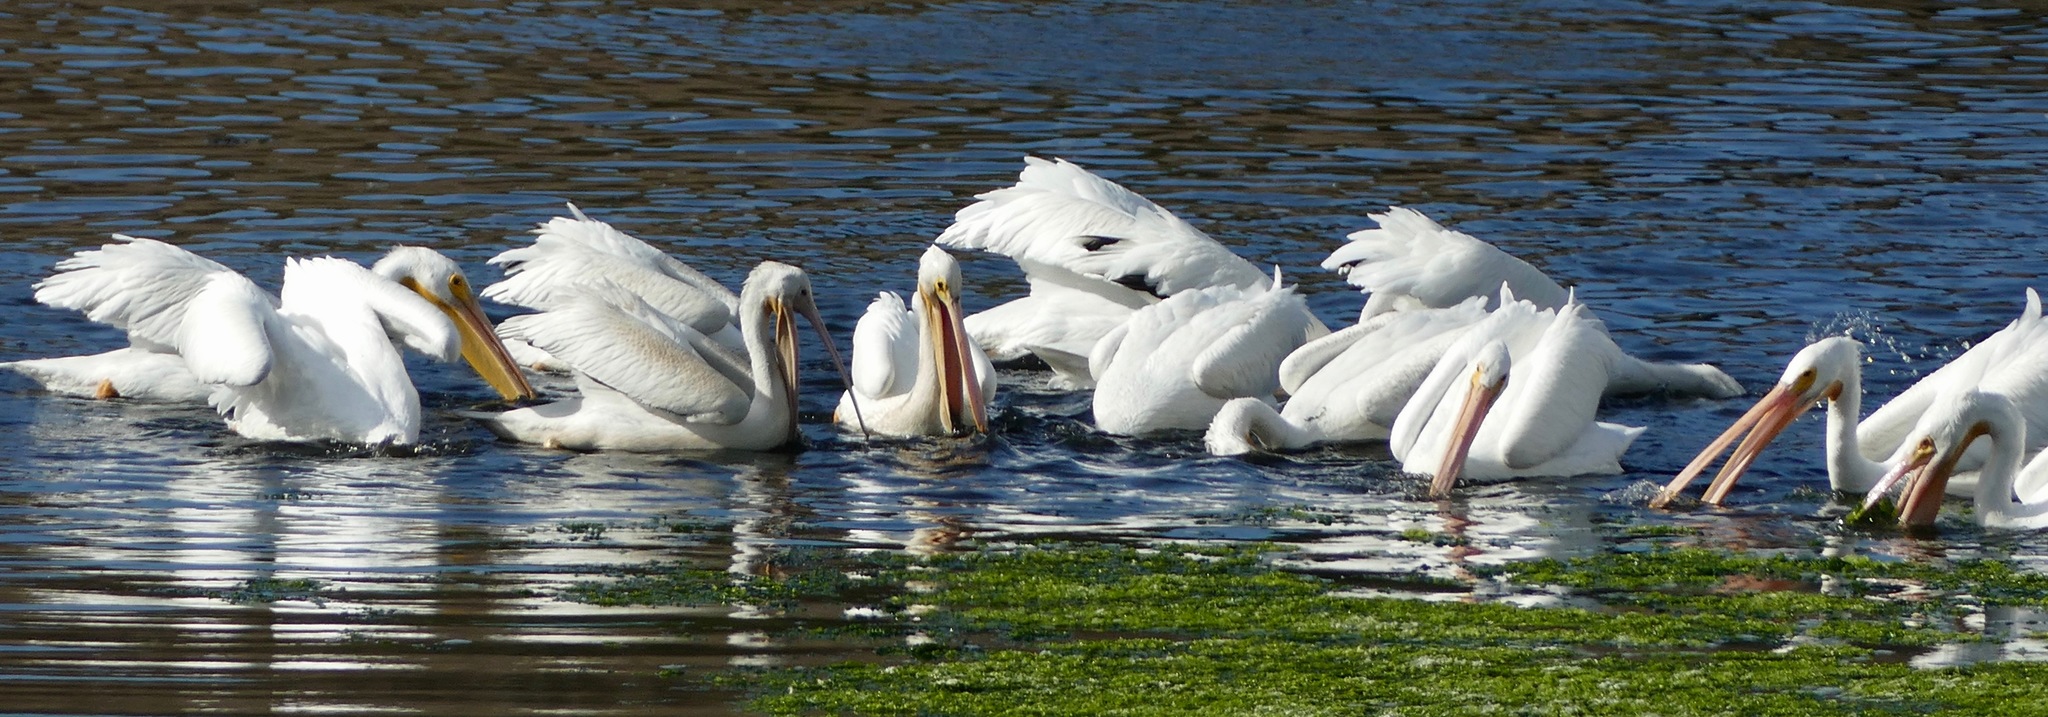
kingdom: Animalia
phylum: Chordata
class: Aves
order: Pelecaniformes
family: Pelecanidae
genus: Pelecanus
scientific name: Pelecanus erythrorhynchos
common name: American white pelican
